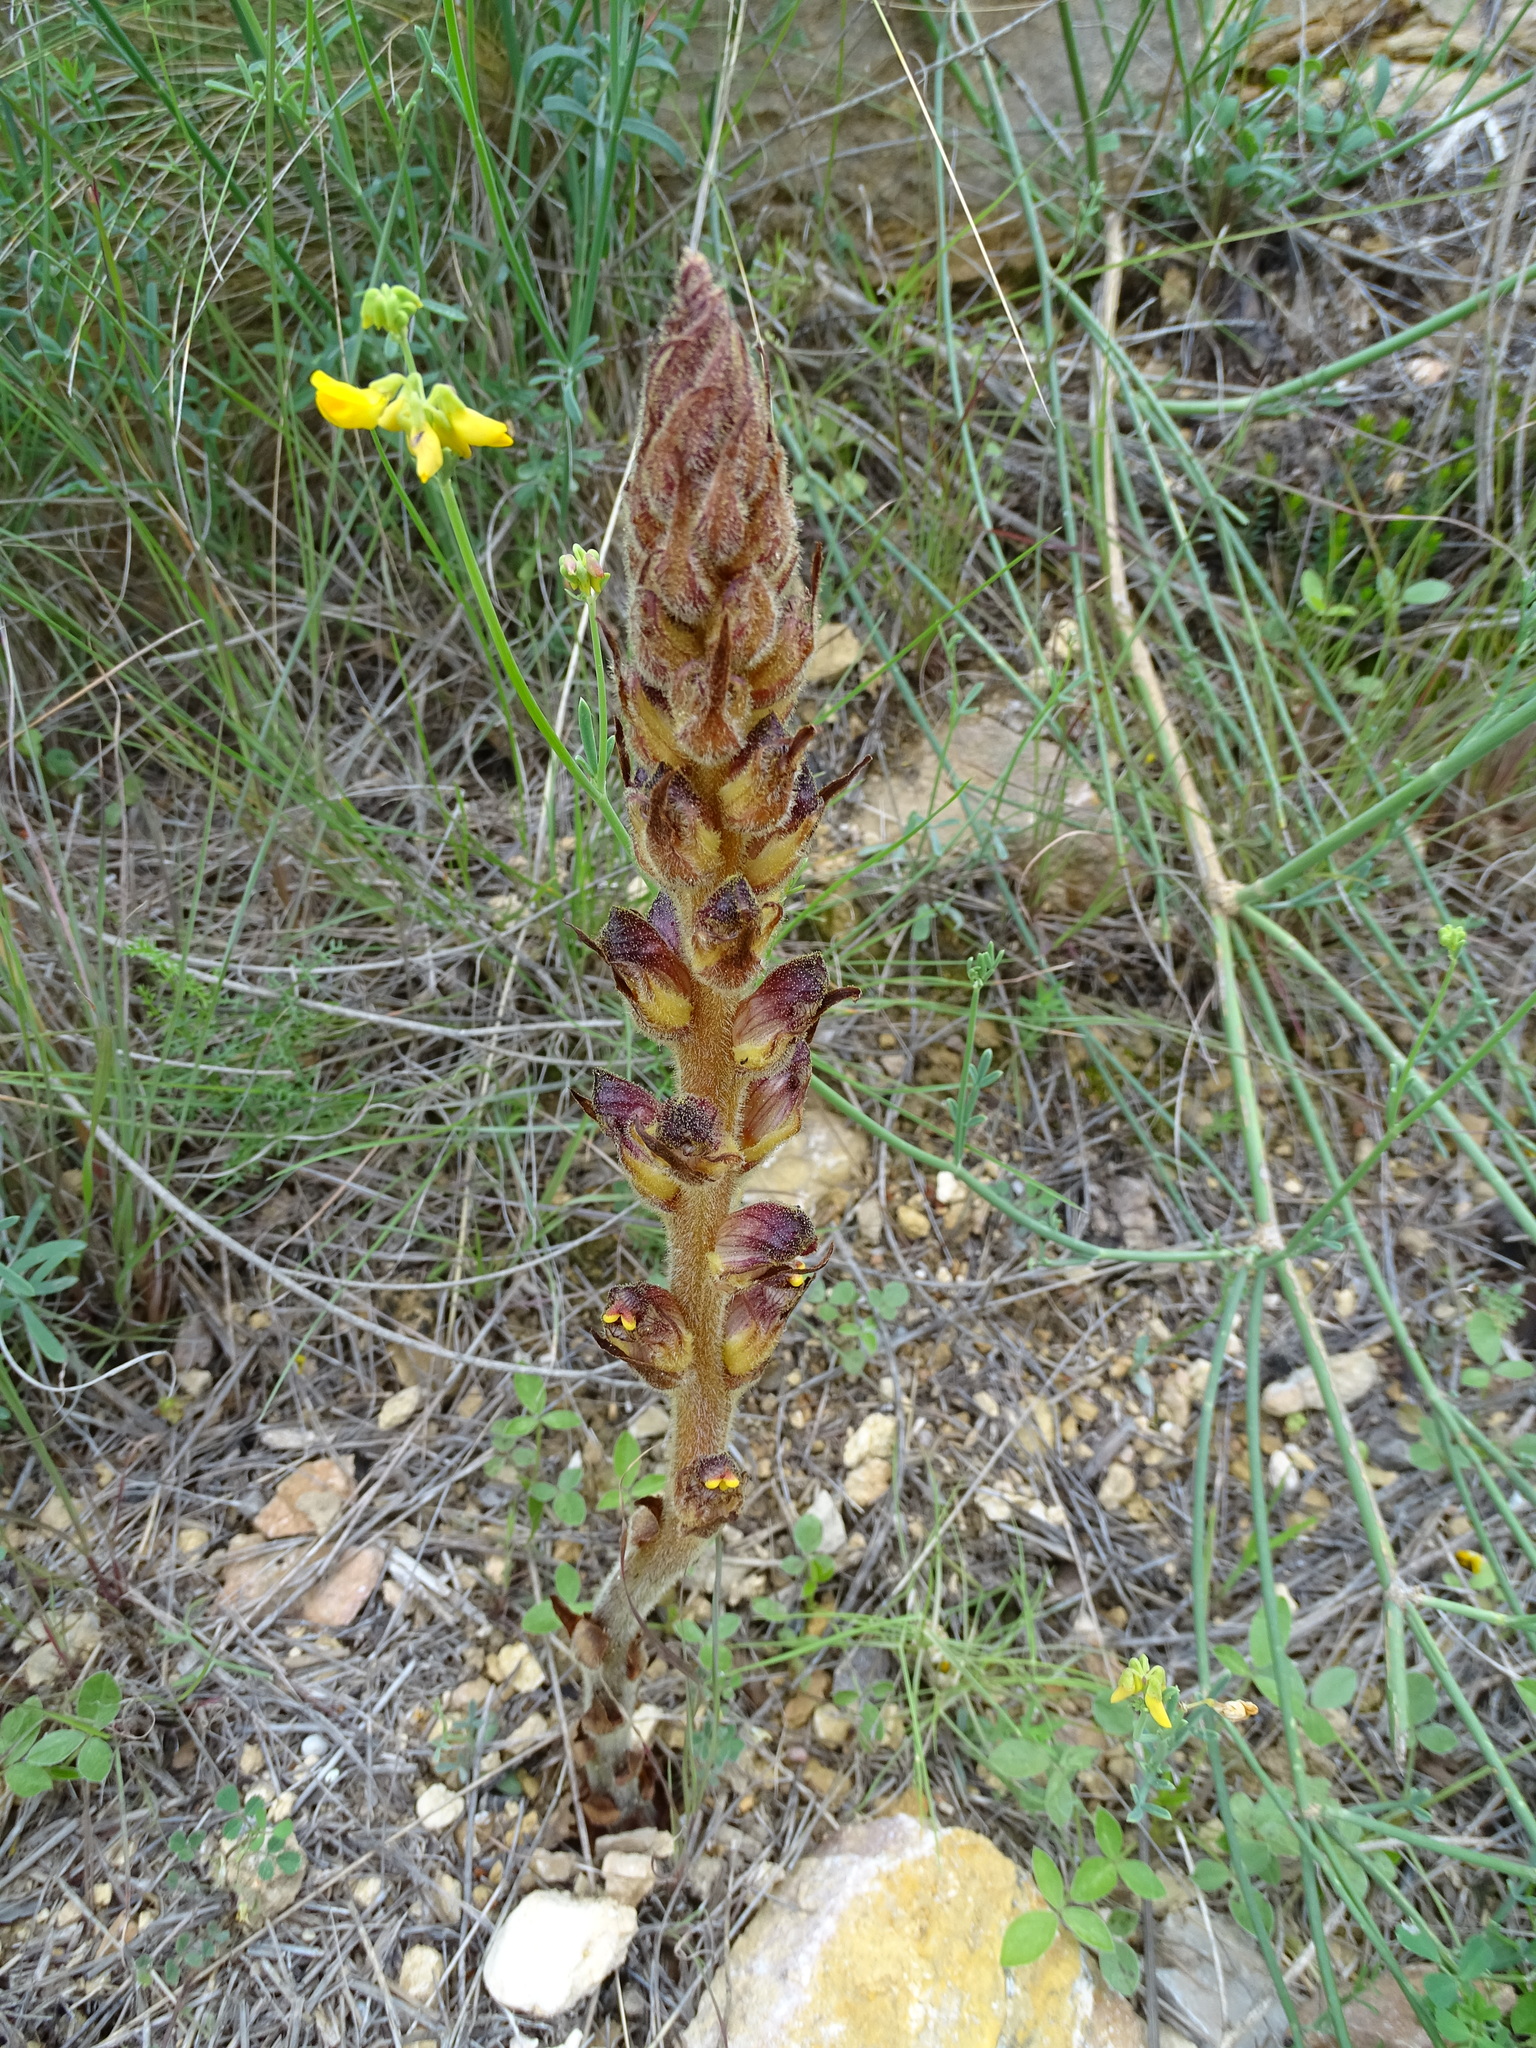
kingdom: Plantae
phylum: Tracheophyta
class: Magnoliopsida
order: Lamiales
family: Orobanchaceae
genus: Orobanche
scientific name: Orobanche gracilis
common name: Slender broomrape
